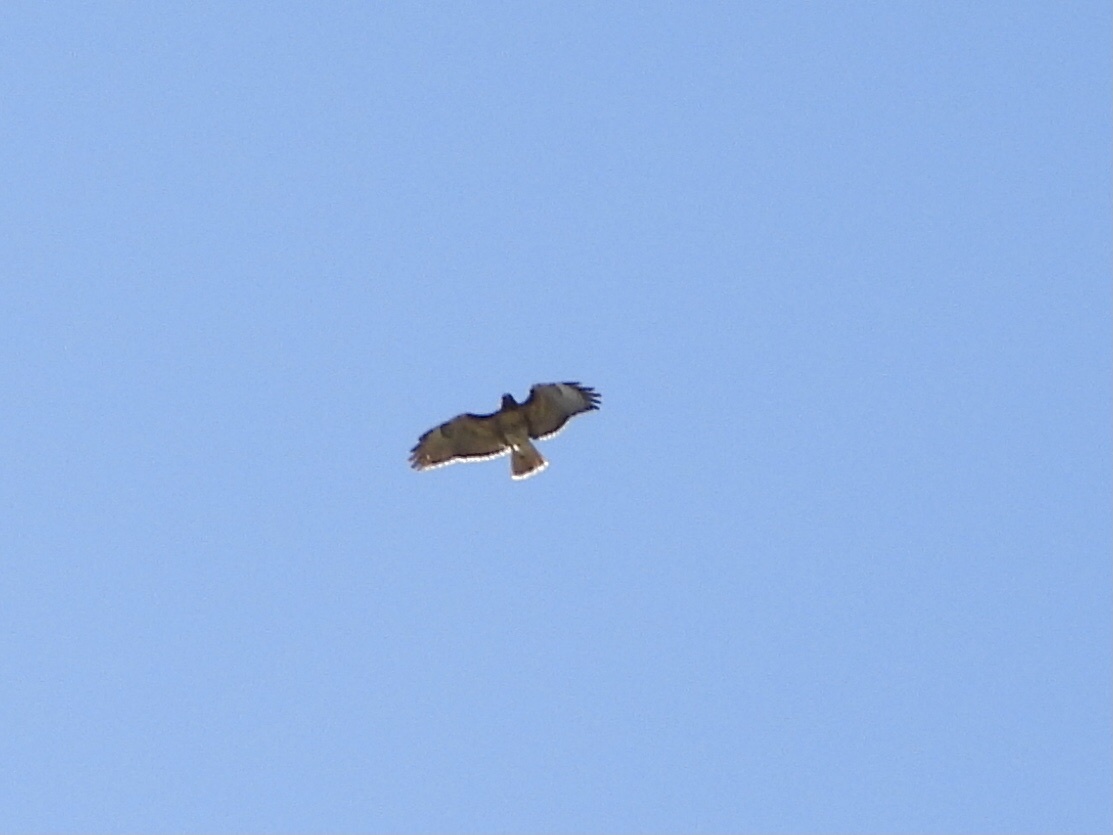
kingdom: Animalia
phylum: Chordata
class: Aves
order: Accipitriformes
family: Accipitridae
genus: Buteo
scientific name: Buteo jamaicensis
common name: Red-tailed hawk
